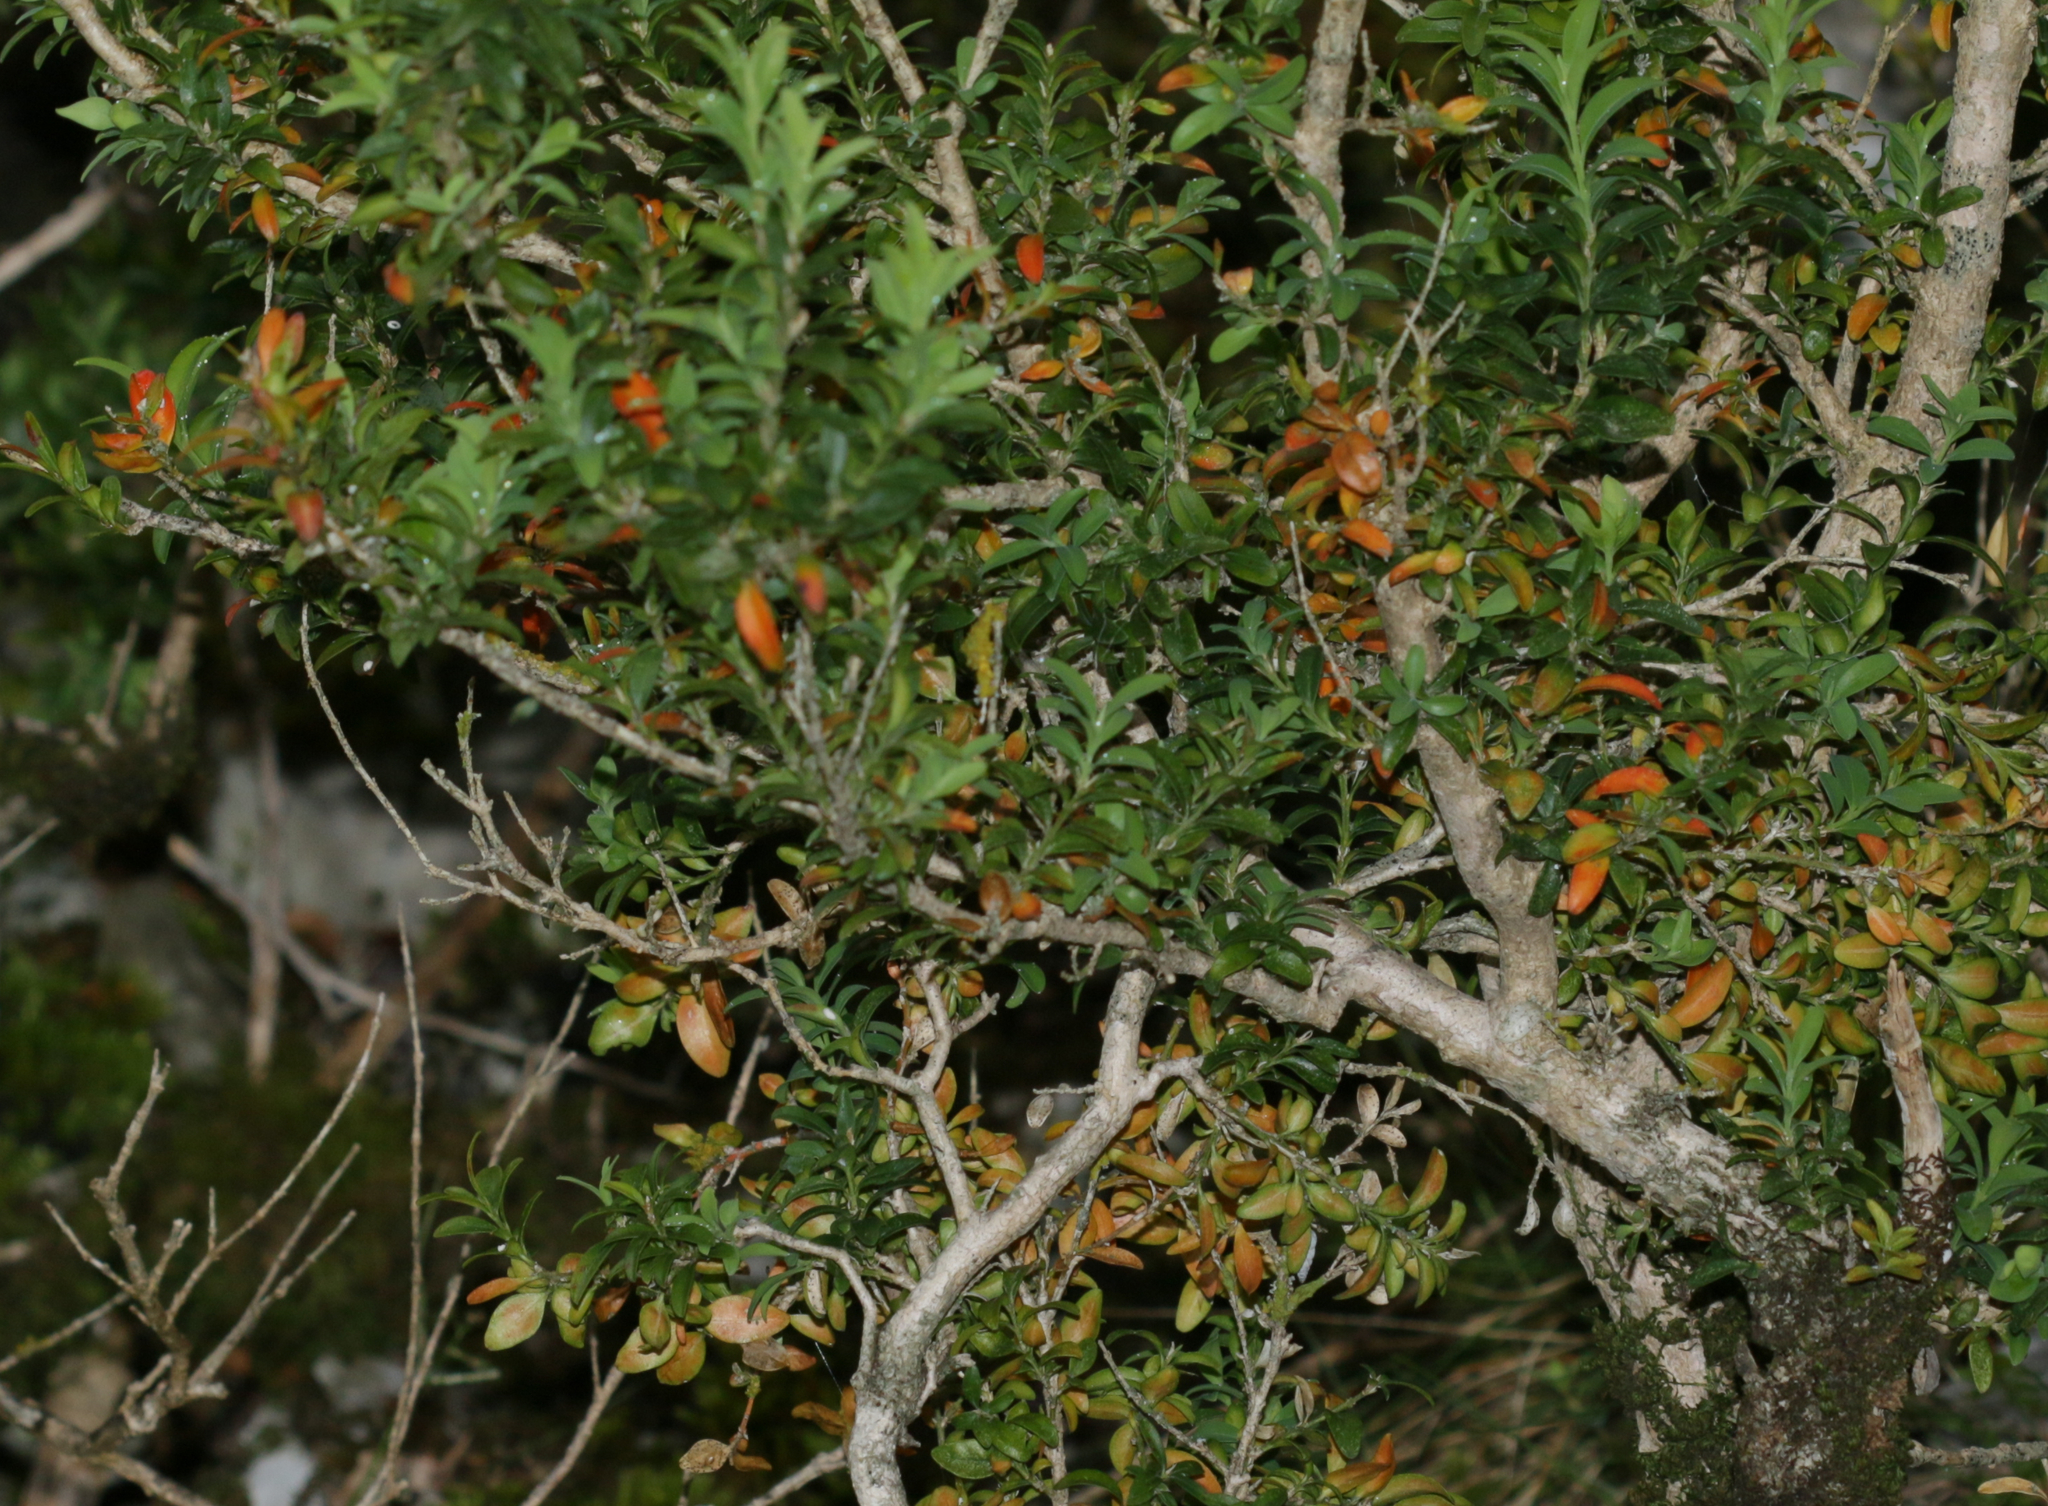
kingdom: Plantae
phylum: Tracheophyta
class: Magnoliopsida
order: Buxales
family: Buxaceae
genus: Buxus
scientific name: Buxus sempervirens
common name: Box
